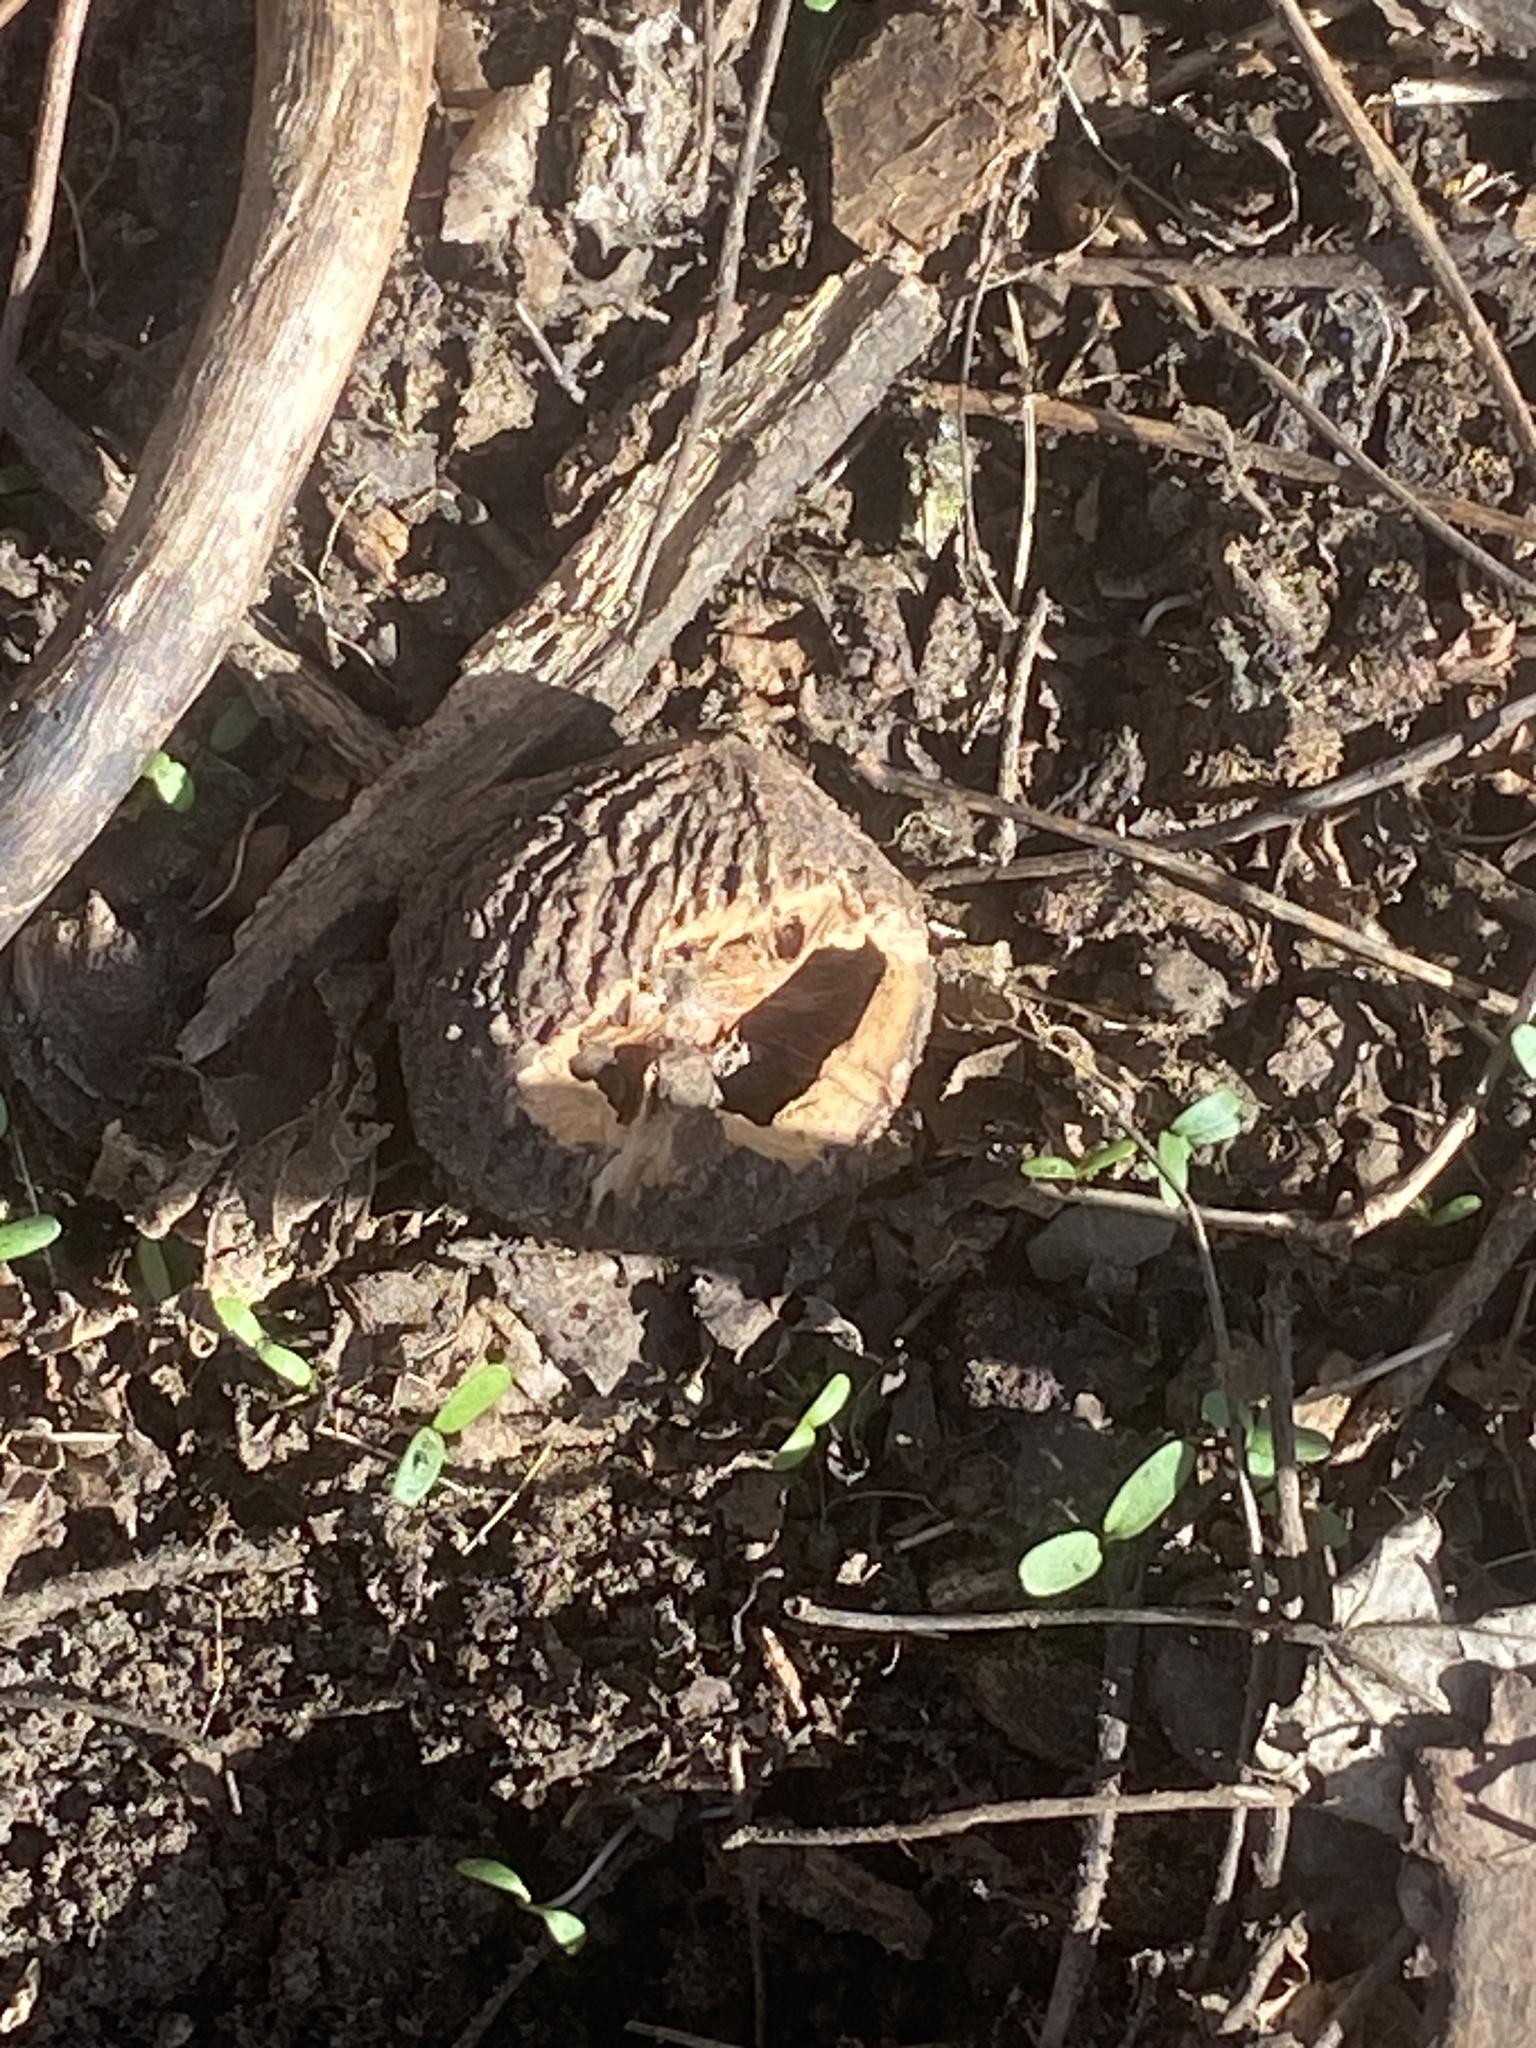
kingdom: Plantae
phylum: Tracheophyta
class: Magnoliopsida
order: Fagales
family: Juglandaceae
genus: Juglans
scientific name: Juglans nigra
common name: Black walnut
